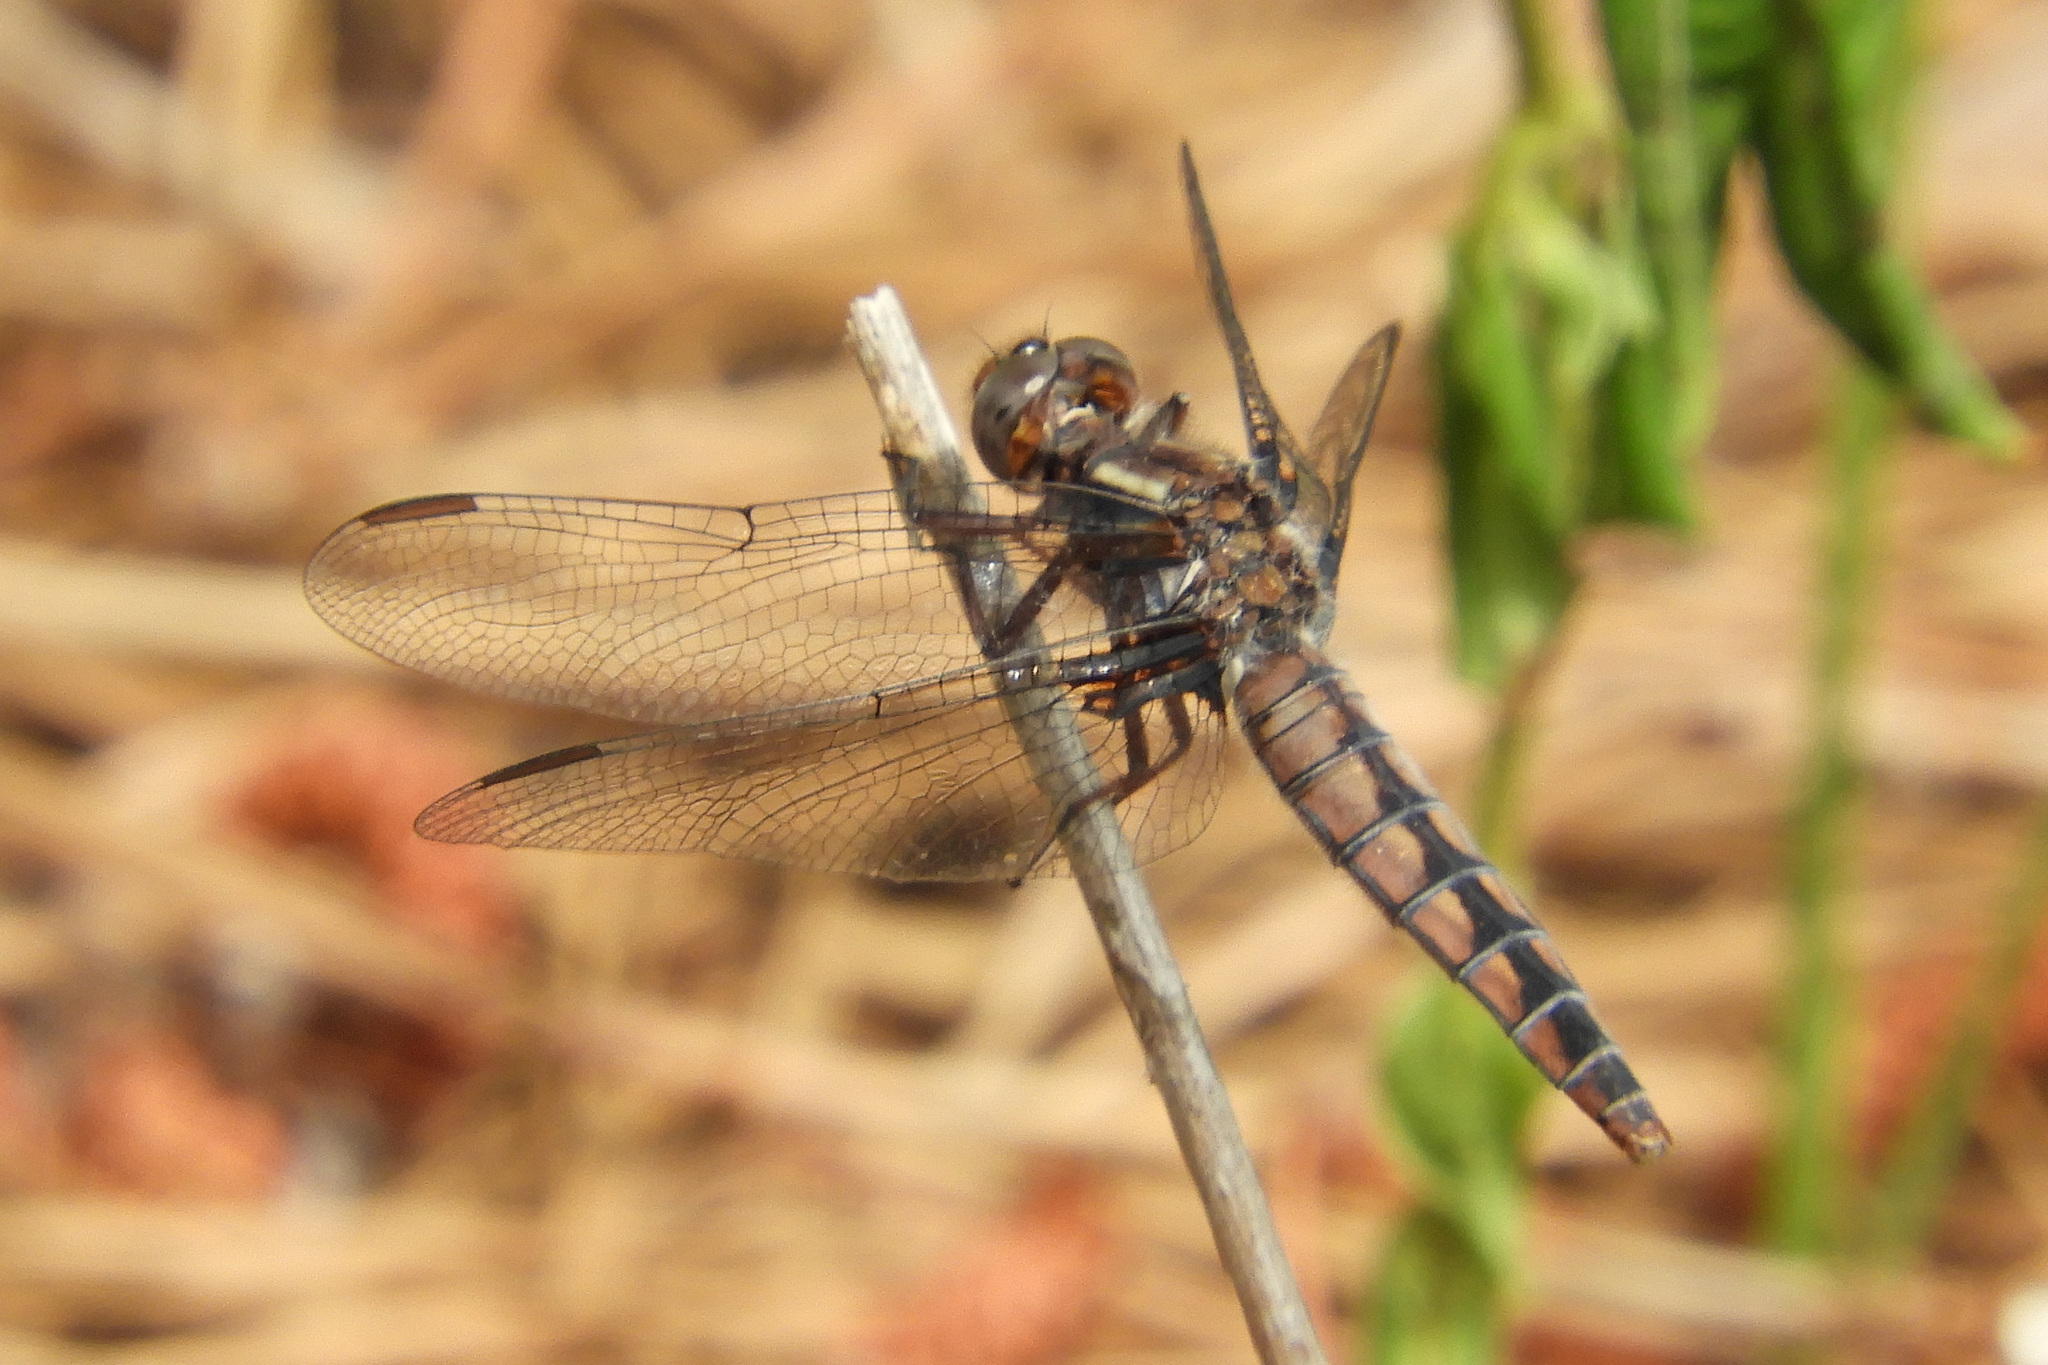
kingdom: Animalia
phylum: Arthropoda
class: Insecta
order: Odonata
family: Libellulidae
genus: Ladona
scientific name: Ladona deplanata
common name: Blue corporal
